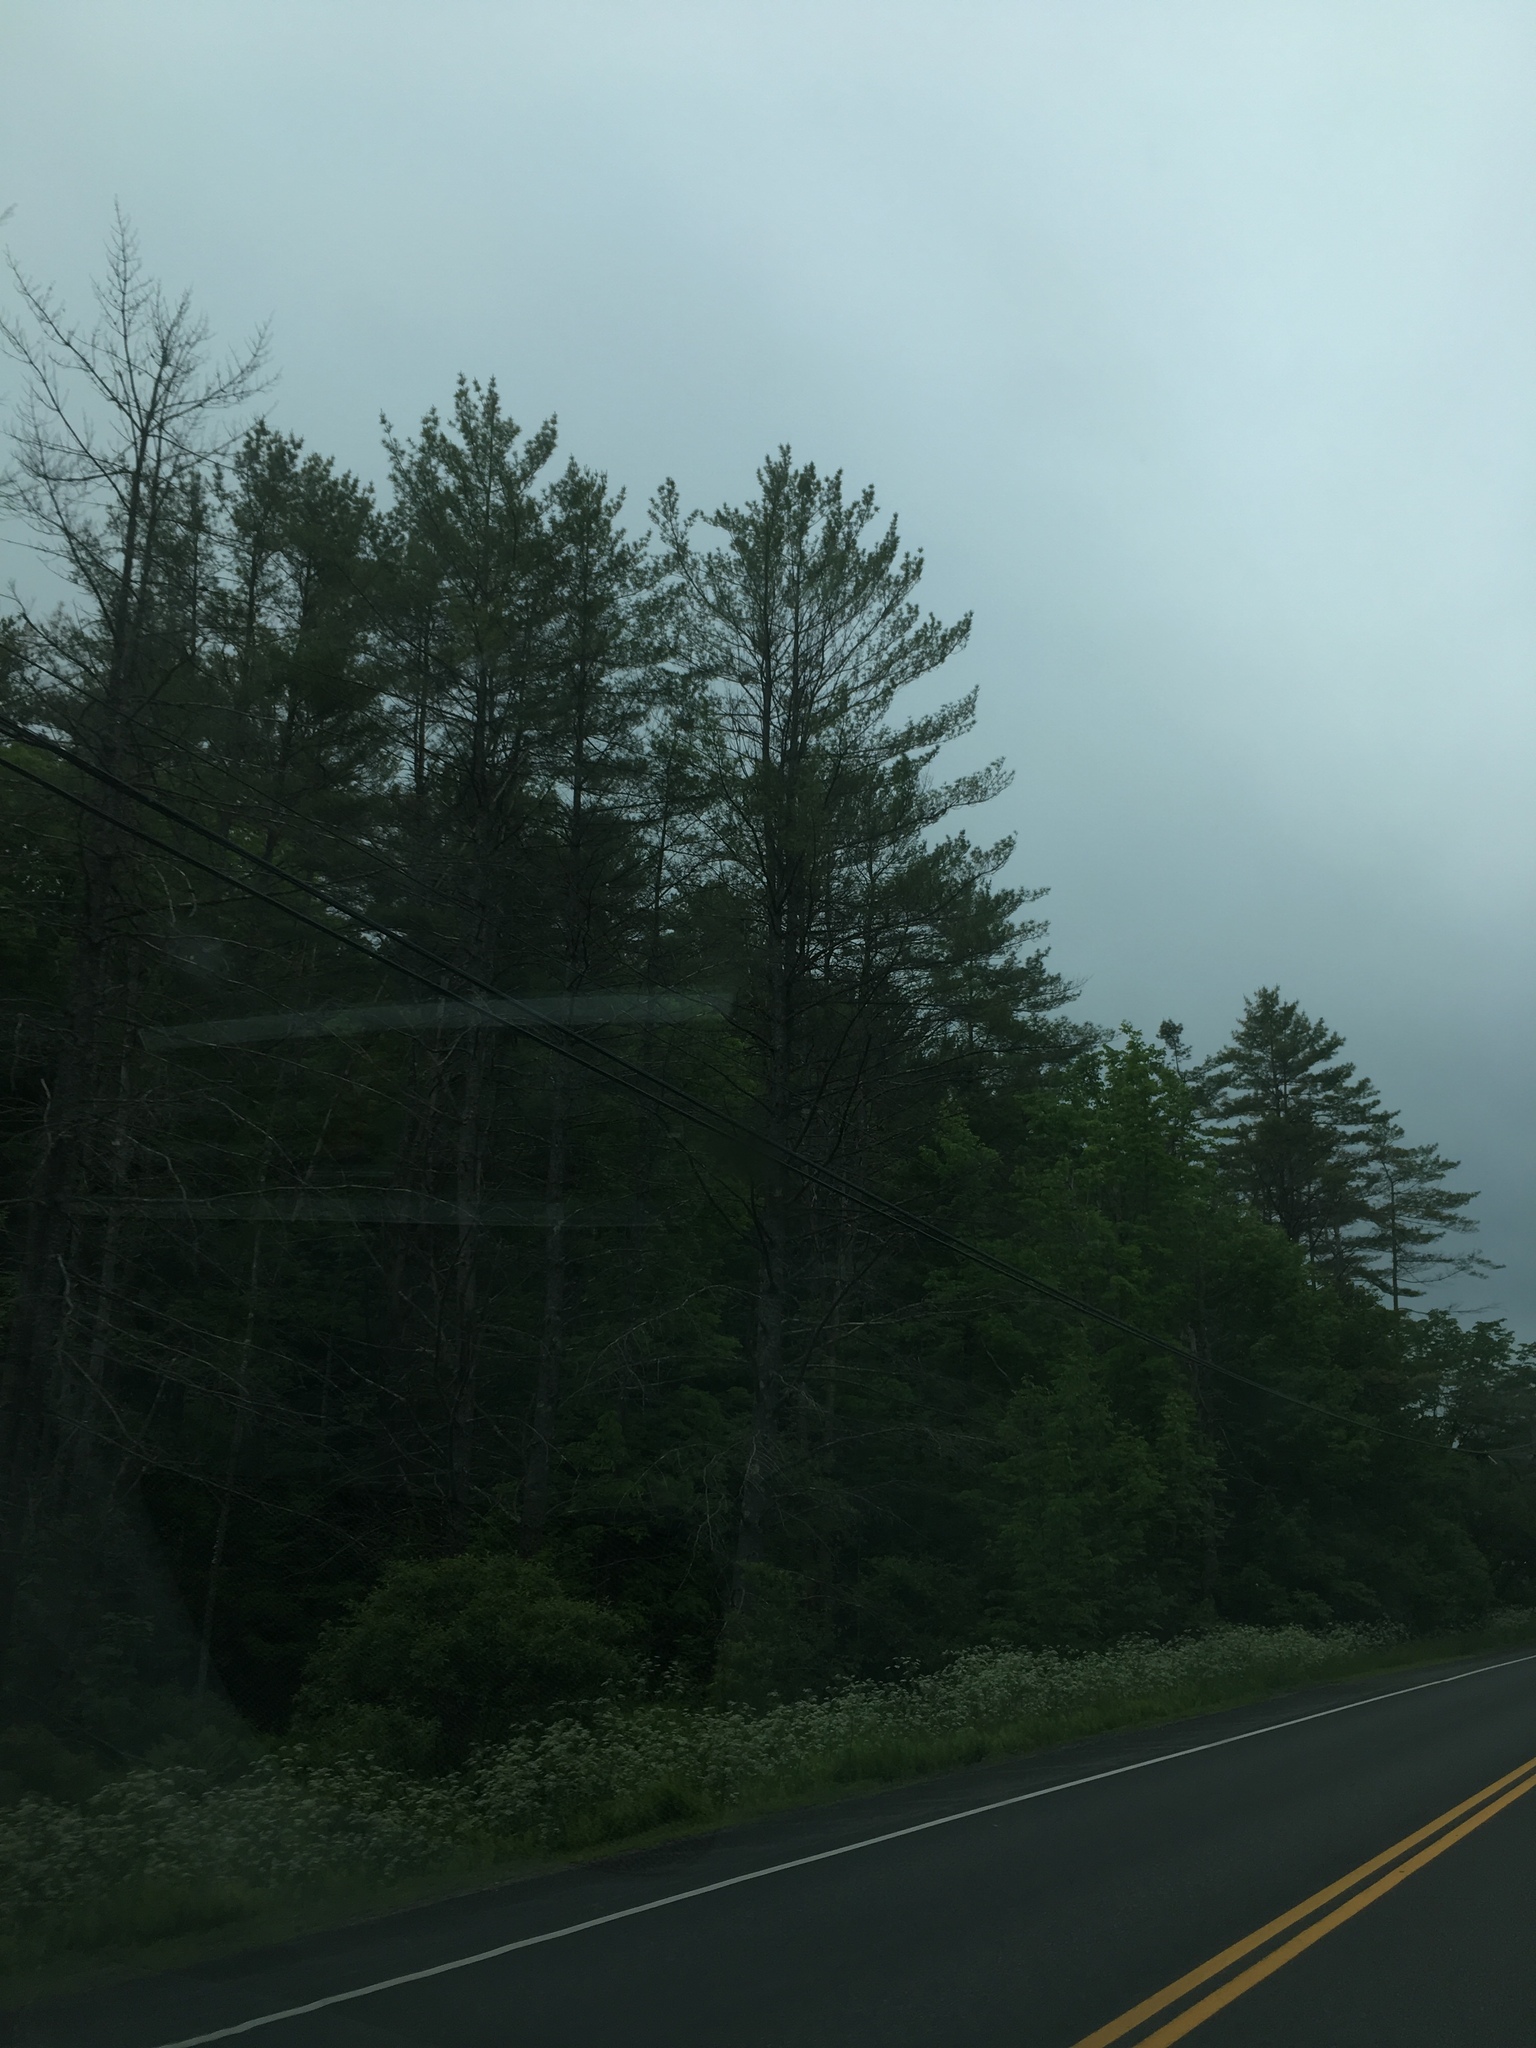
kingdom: Plantae
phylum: Tracheophyta
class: Pinopsida
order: Pinales
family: Pinaceae
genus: Pinus
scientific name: Pinus strobus
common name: Weymouth pine
